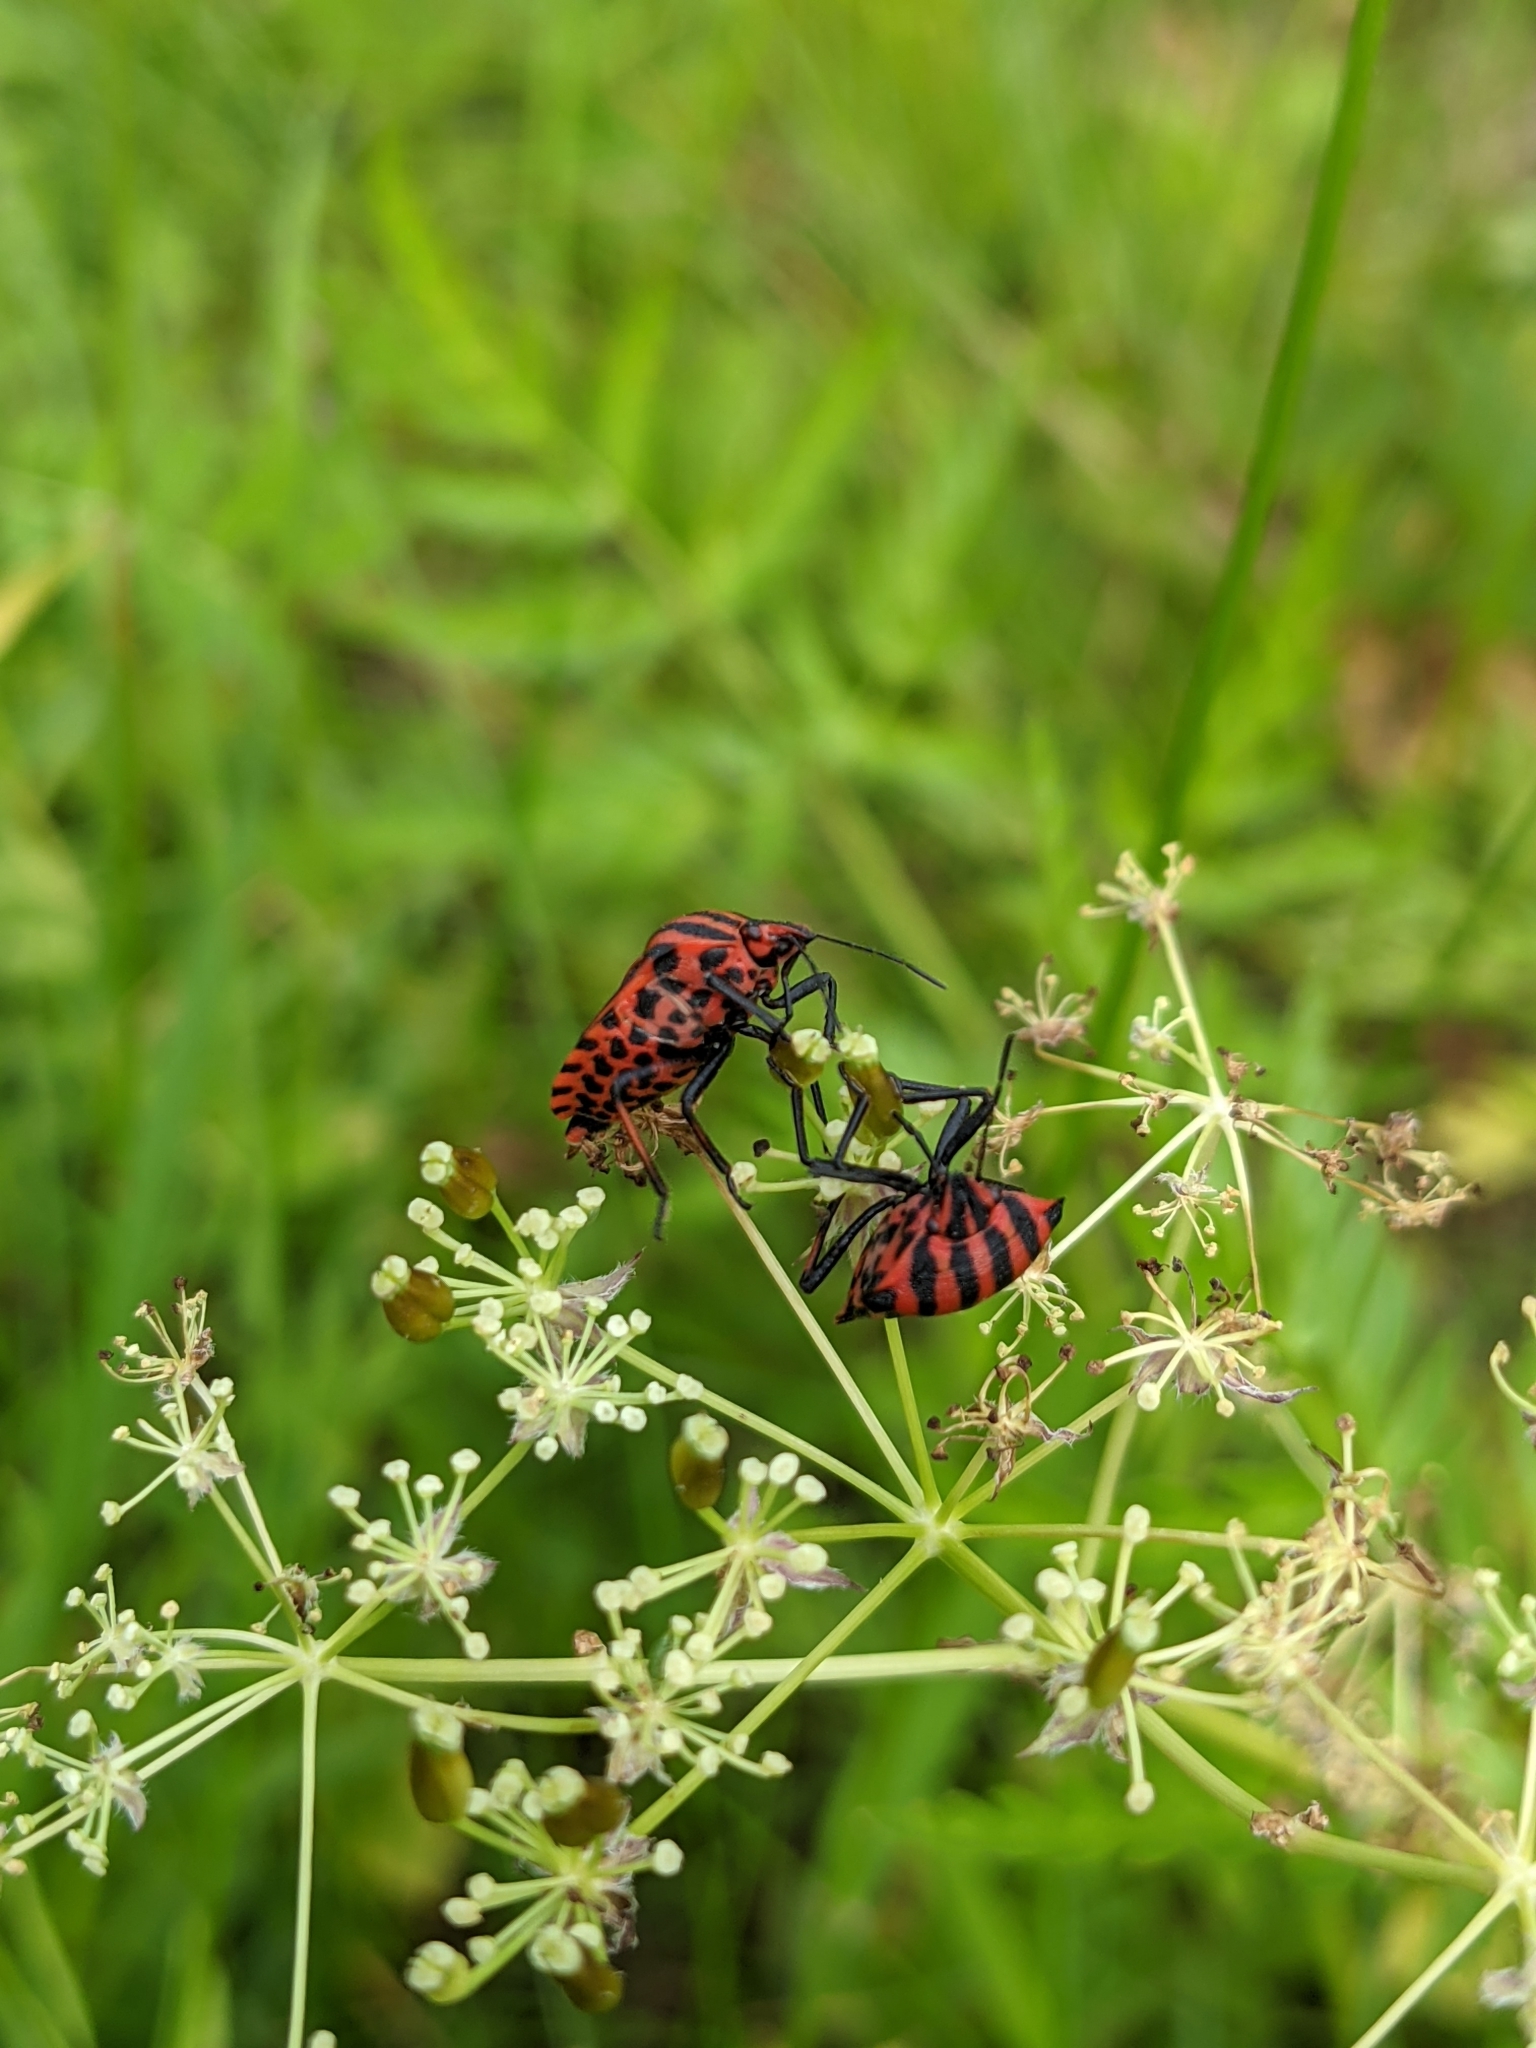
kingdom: Animalia
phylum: Arthropoda
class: Insecta
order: Hemiptera
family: Pentatomidae
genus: Graphosoma
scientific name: Graphosoma italicum
